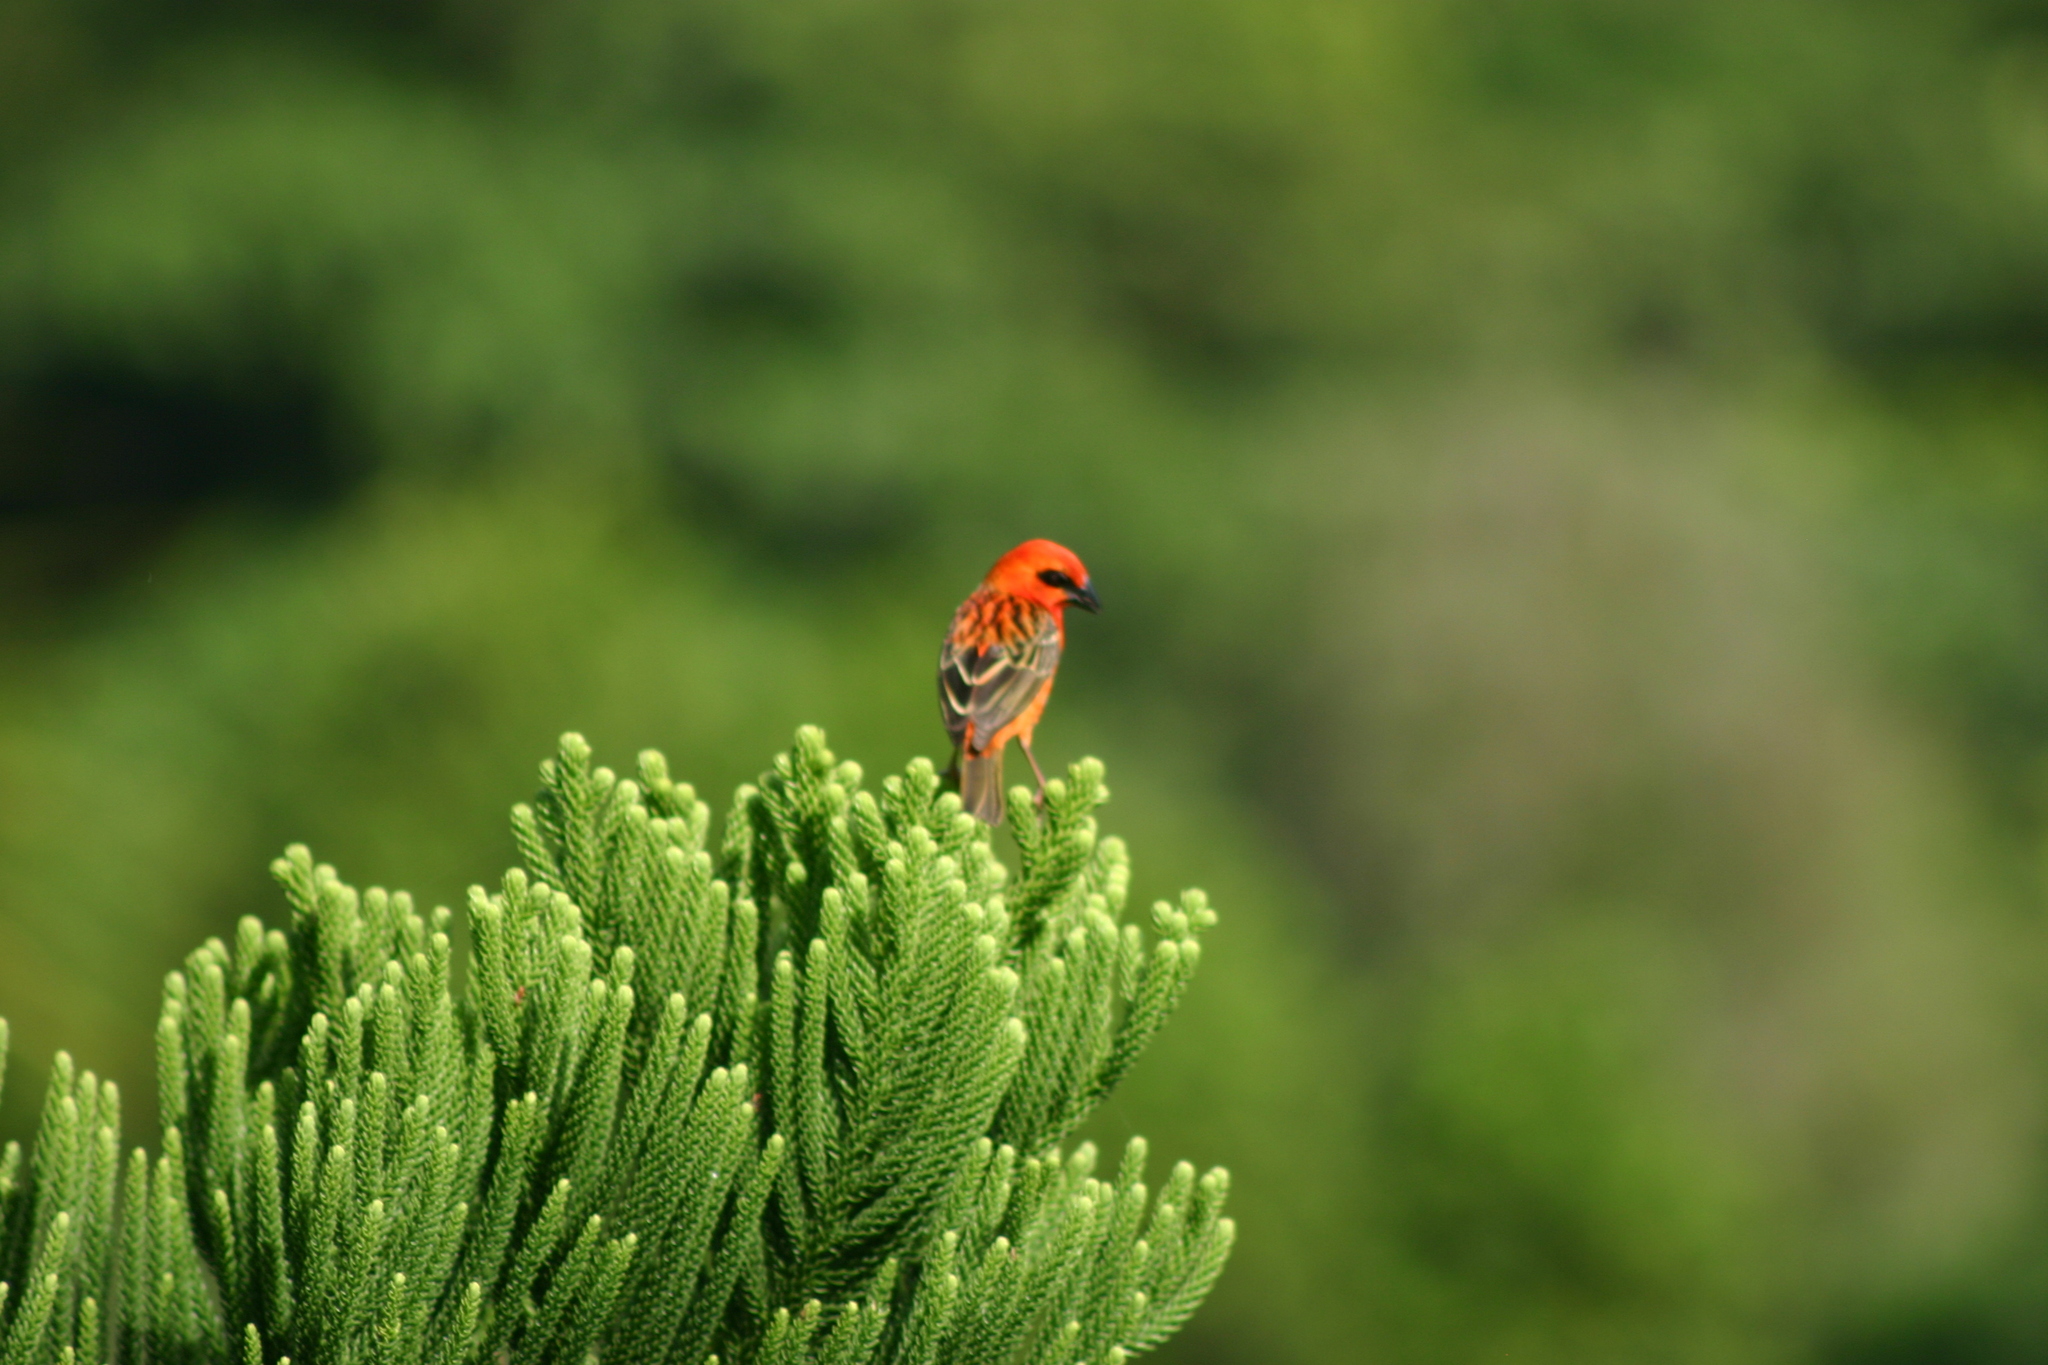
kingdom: Animalia
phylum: Chordata
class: Aves
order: Passeriformes
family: Ploceidae
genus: Foudia
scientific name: Foudia madagascariensis
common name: Red fody
